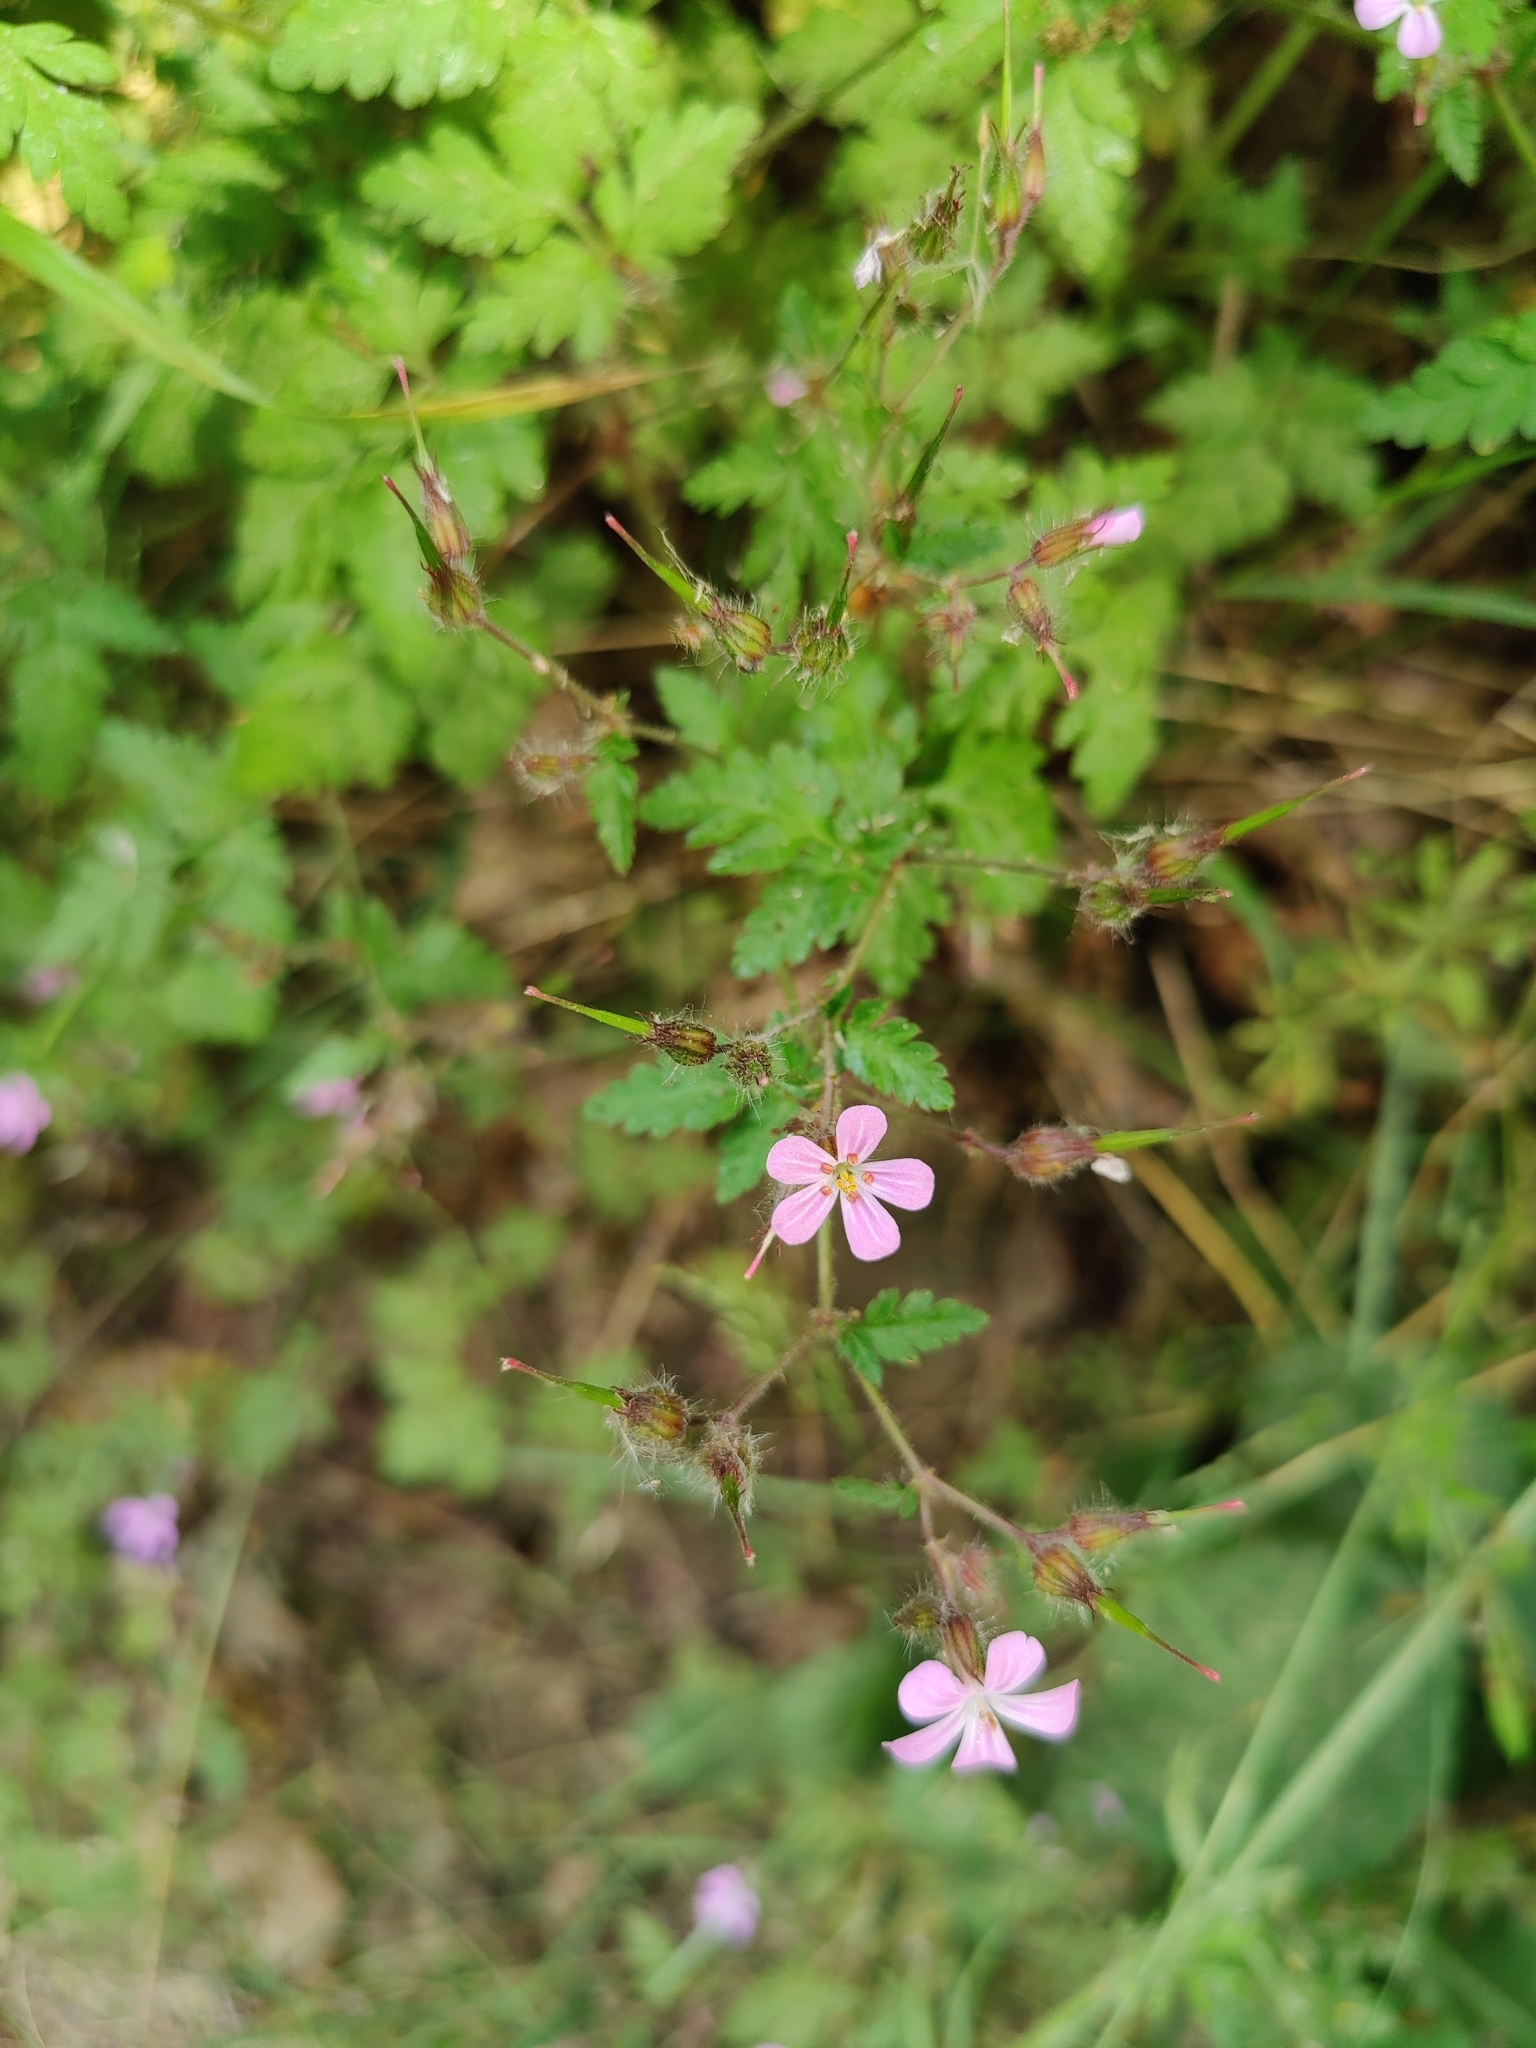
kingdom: Plantae
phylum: Tracheophyta
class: Magnoliopsida
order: Geraniales
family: Geraniaceae
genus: Geranium
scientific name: Geranium robertianum
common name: Herb-robert
